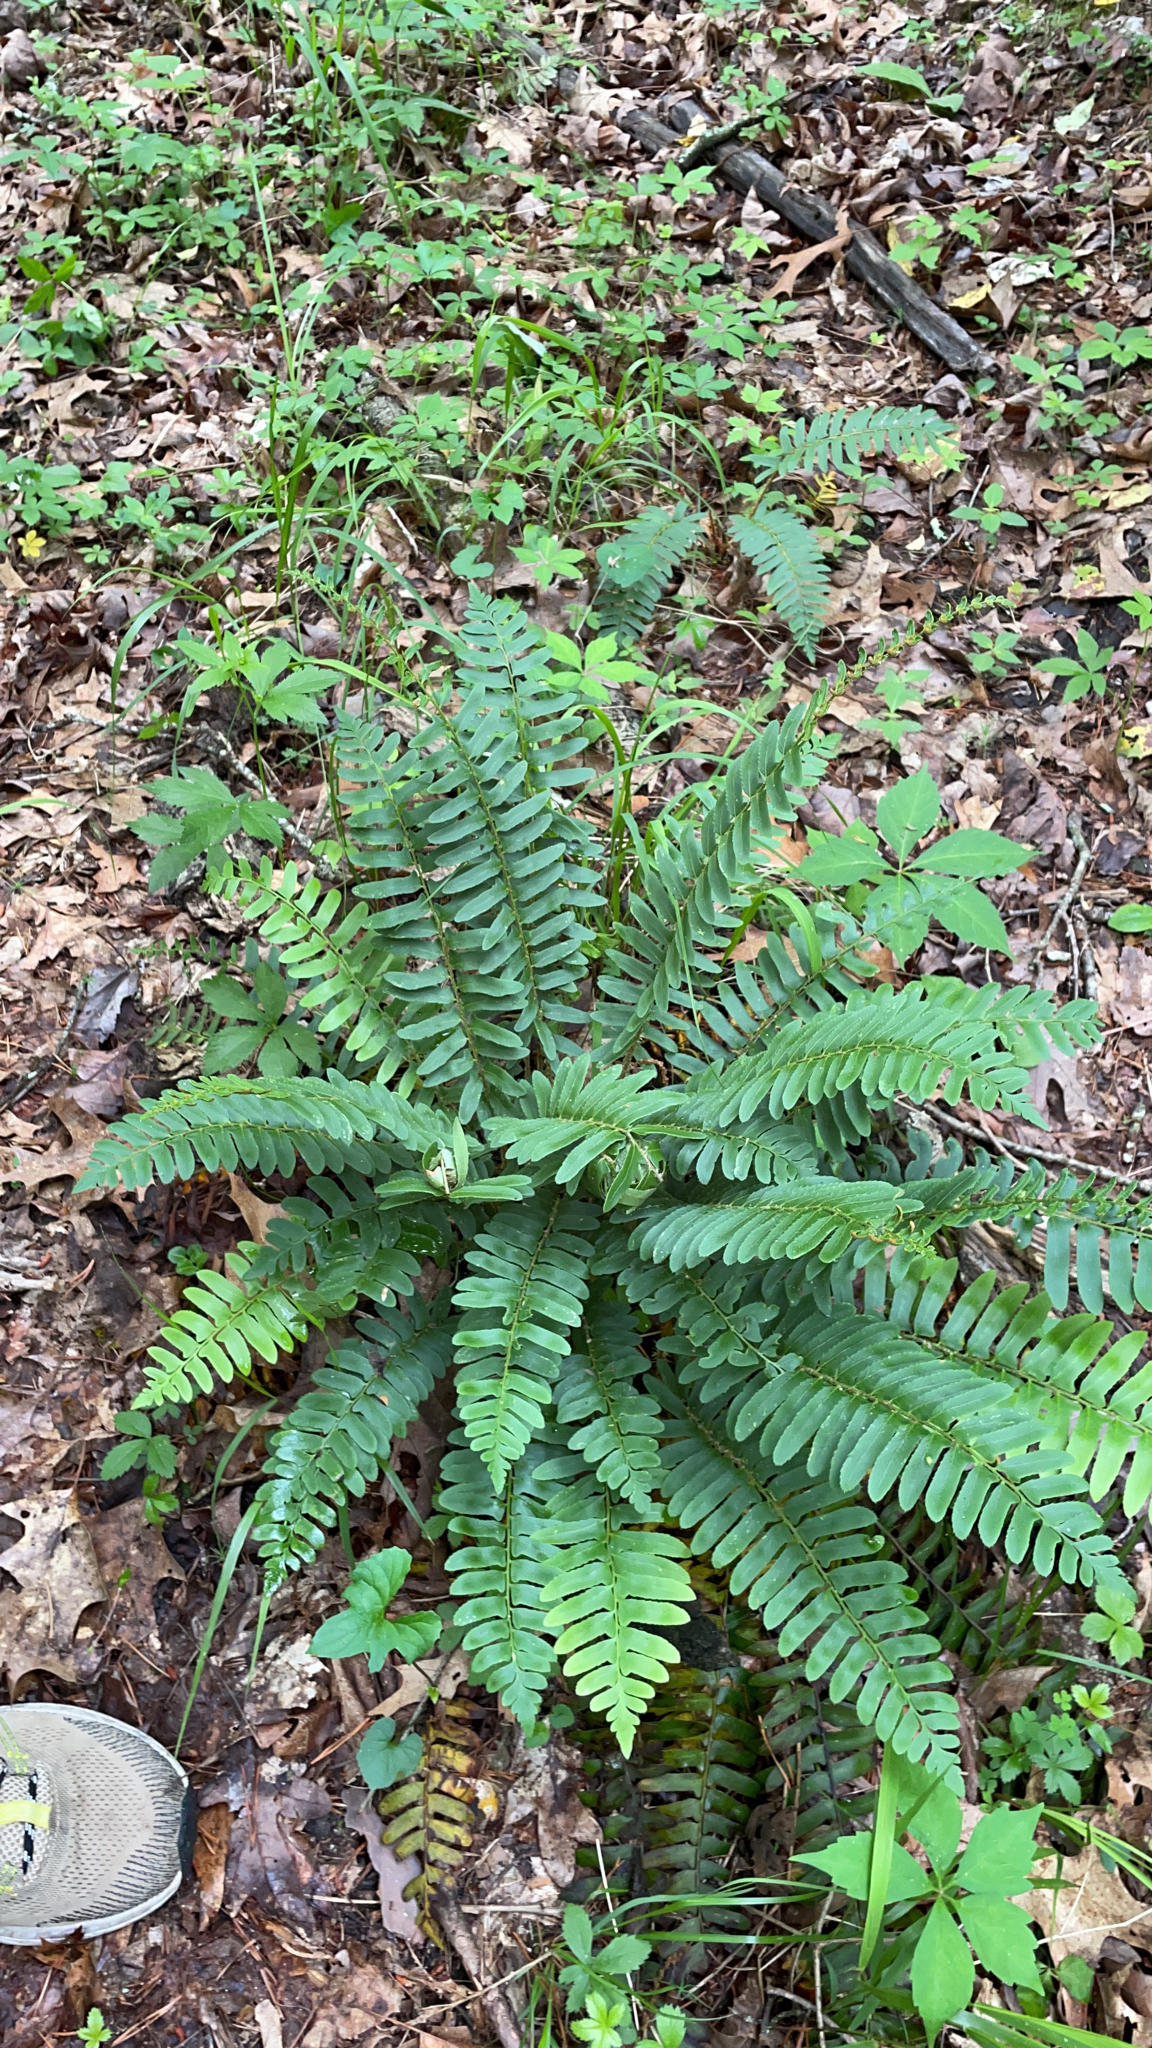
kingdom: Plantae
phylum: Tracheophyta
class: Polypodiopsida
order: Polypodiales
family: Dryopteridaceae
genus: Polystichum
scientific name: Polystichum acrostichoides
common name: Christmas fern
